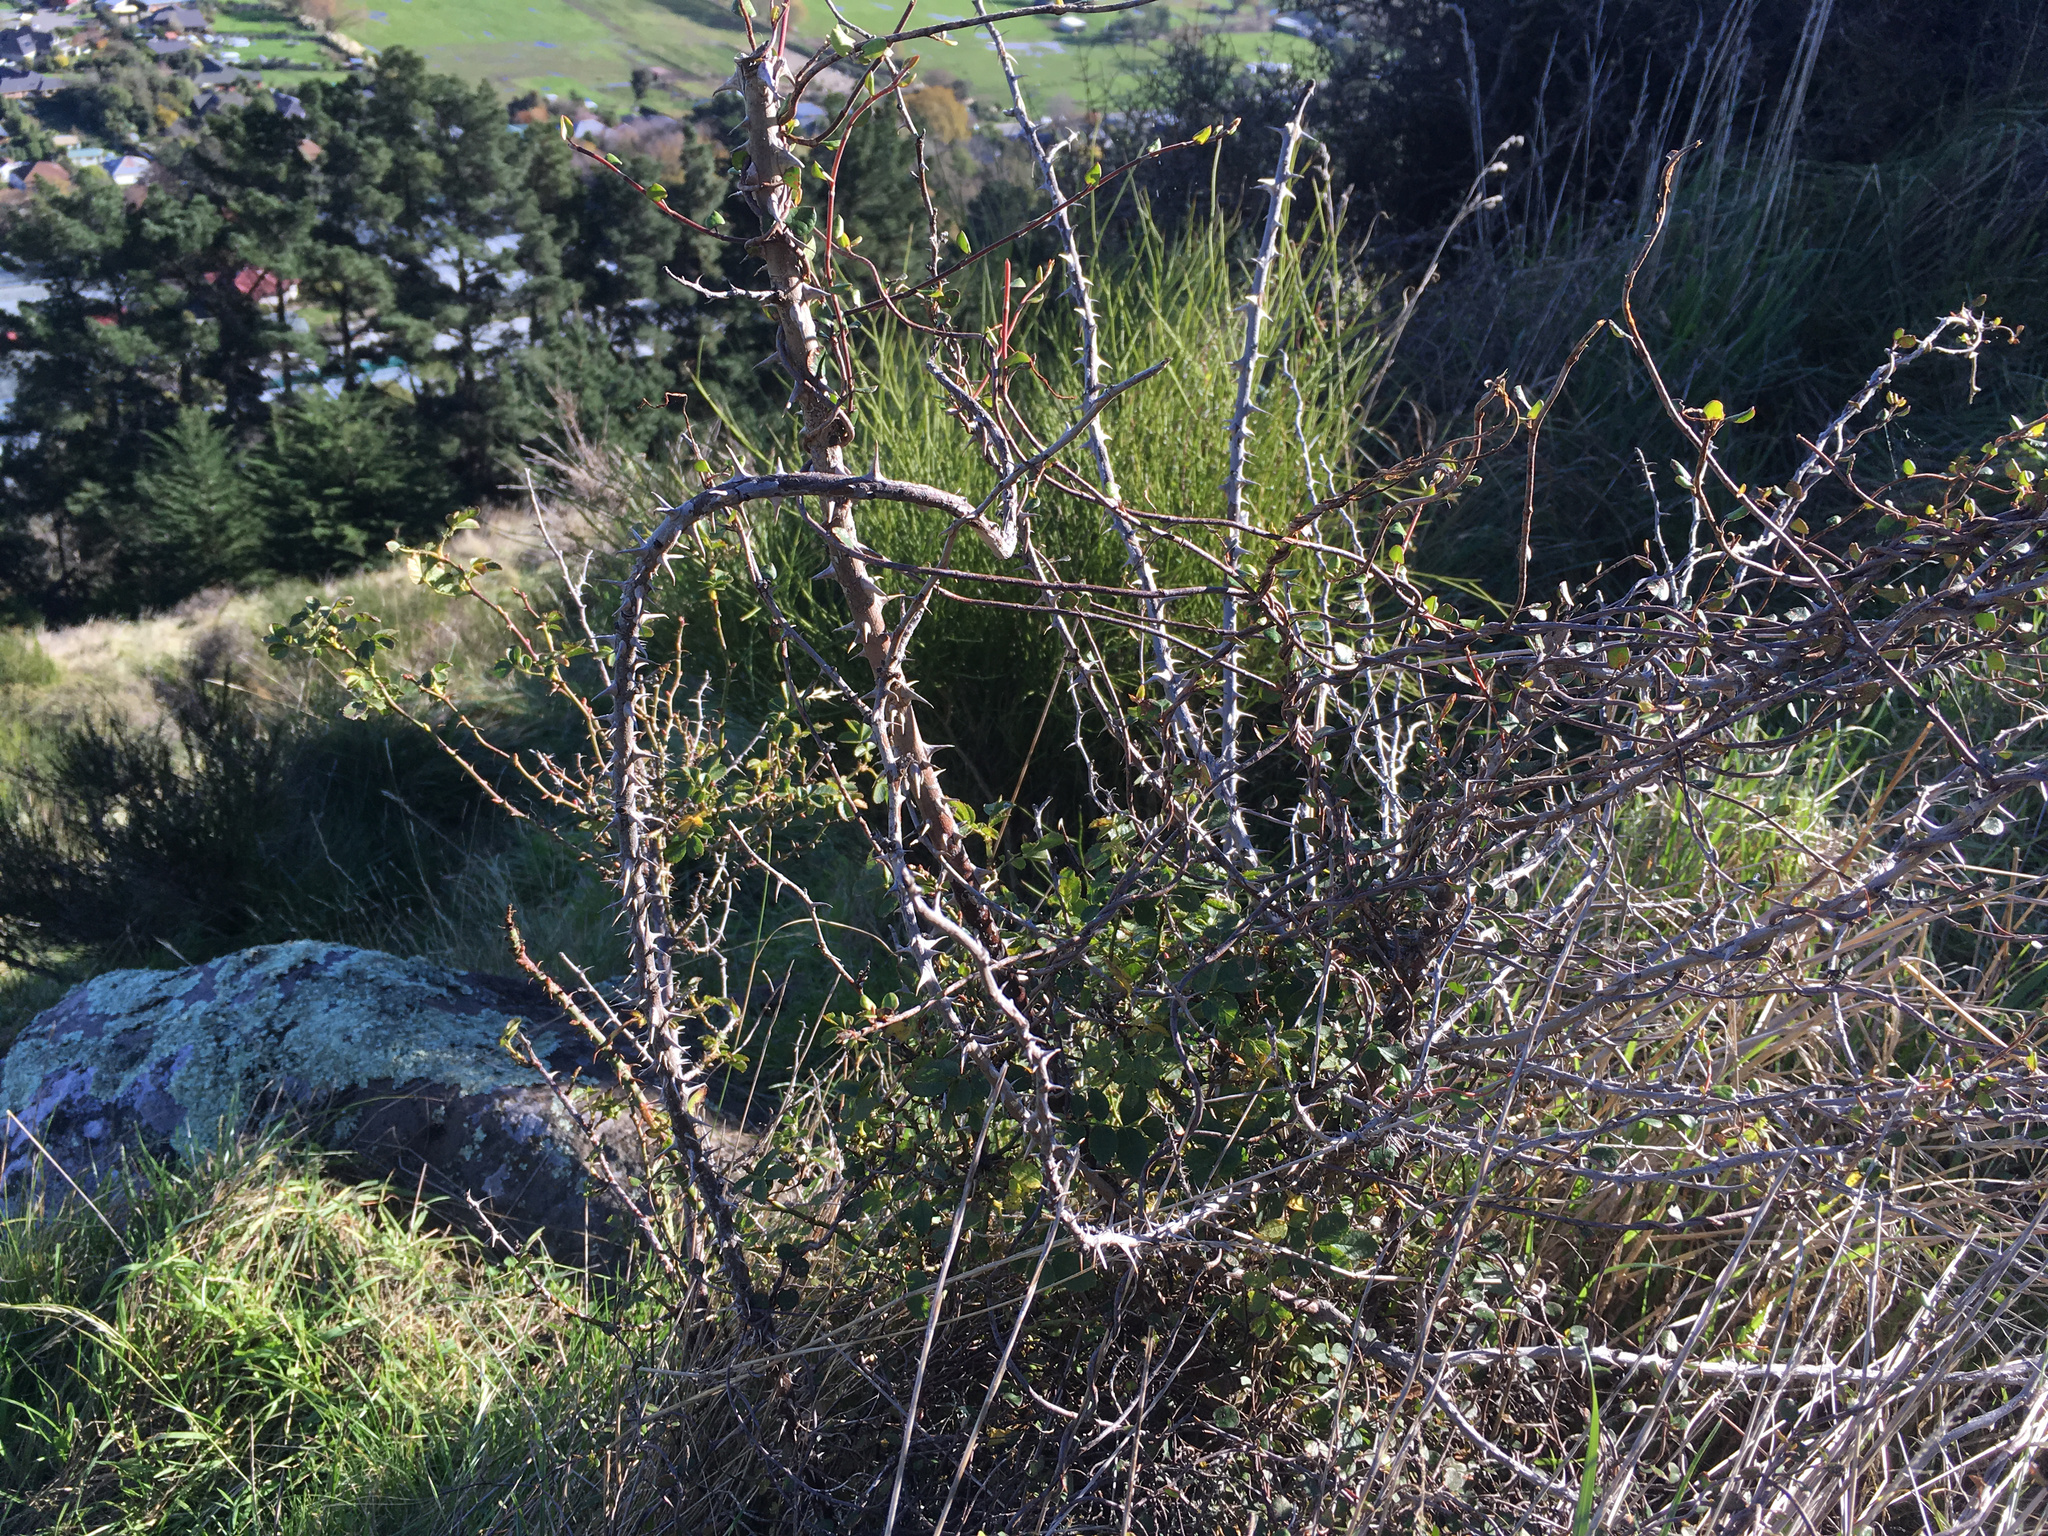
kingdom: Plantae
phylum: Tracheophyta
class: Magnoliopsida
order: Rosales
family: Rosaceae
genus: Rosa
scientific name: Rosa rubiginosa
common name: Sweet-briar
